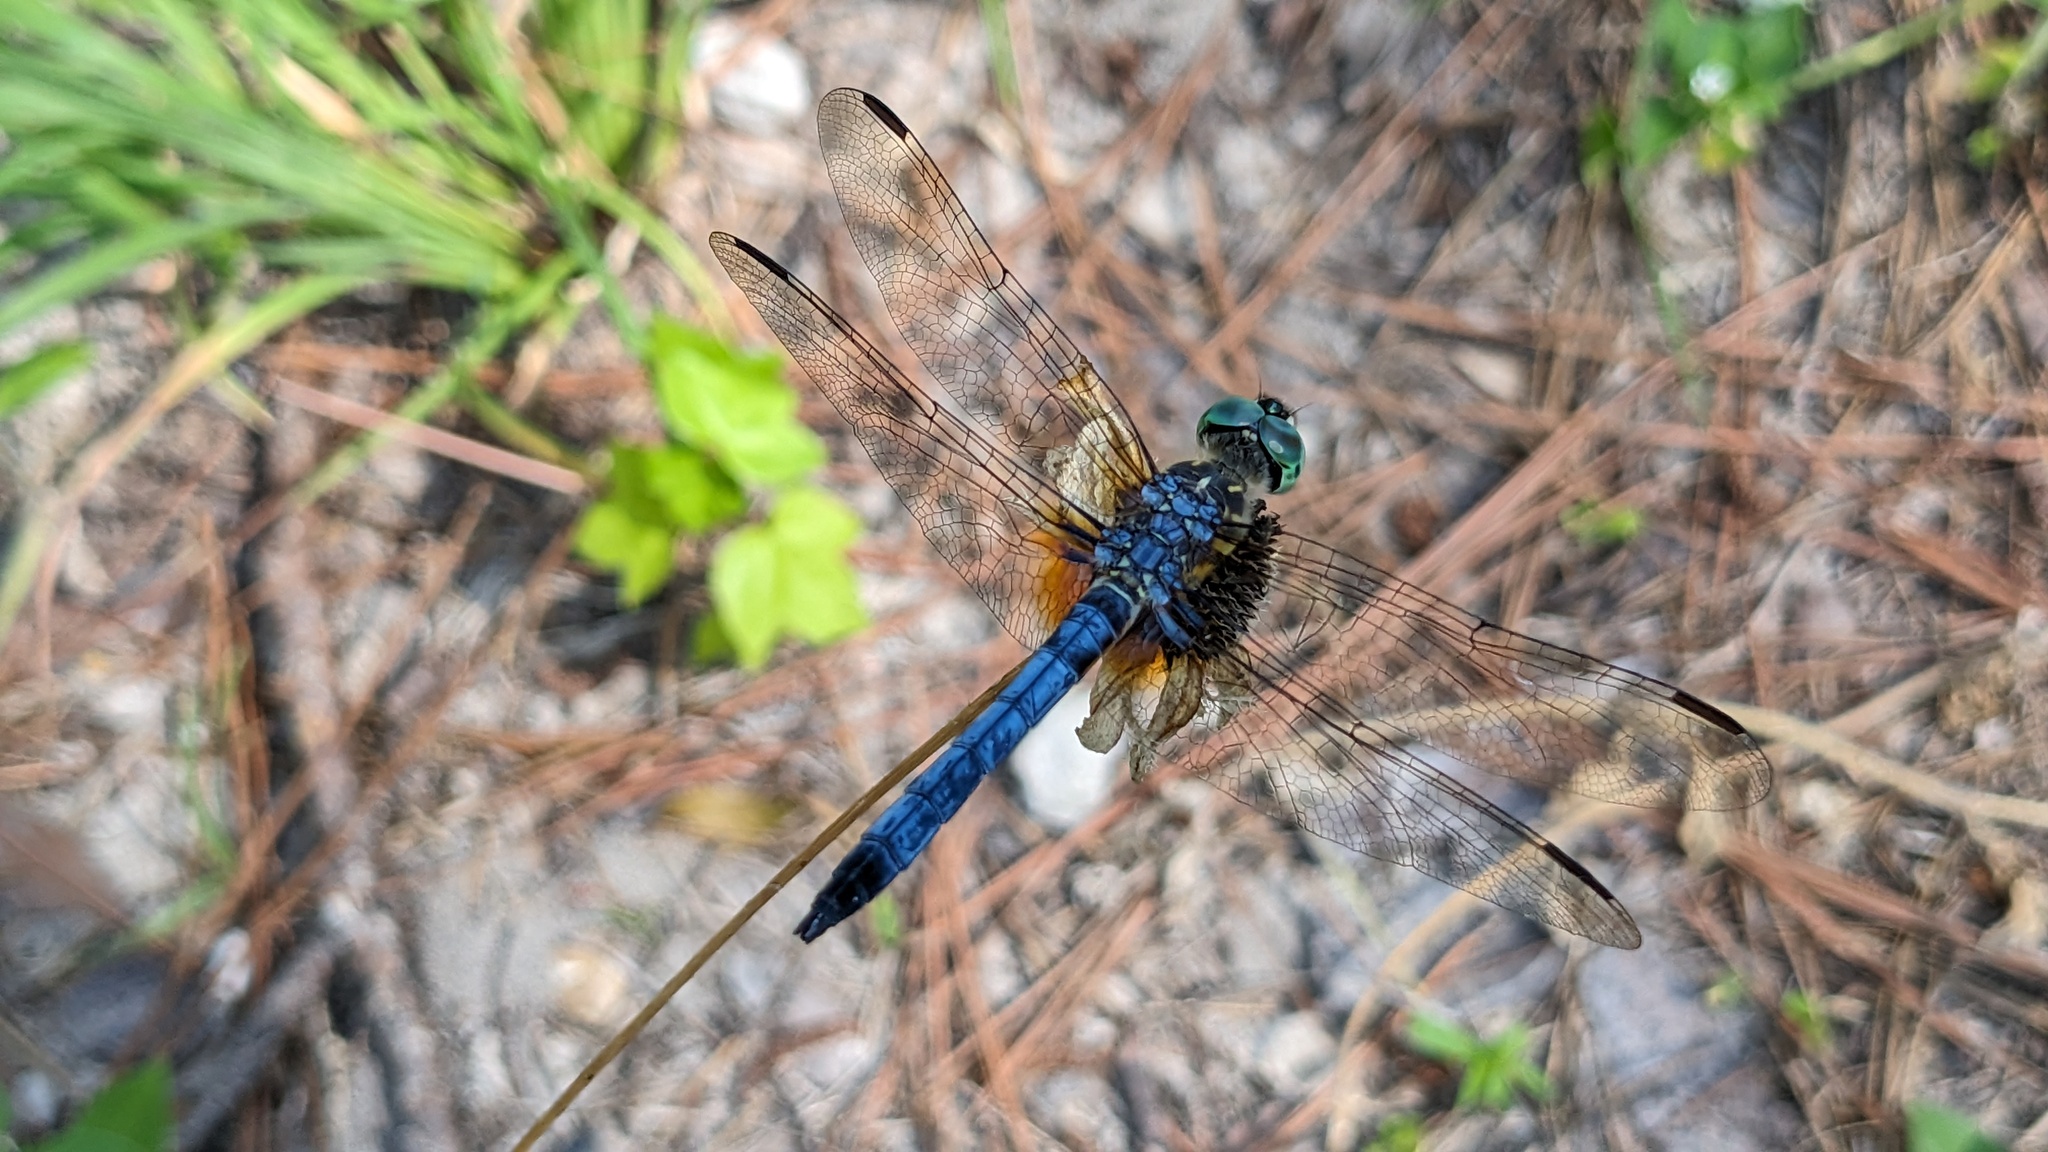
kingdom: Animalia
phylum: Arthropoda
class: Insecta
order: Odonata
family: Libellulidae
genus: Pachydiplax
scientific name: Pachydiplax longipennis
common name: Blue dasher
